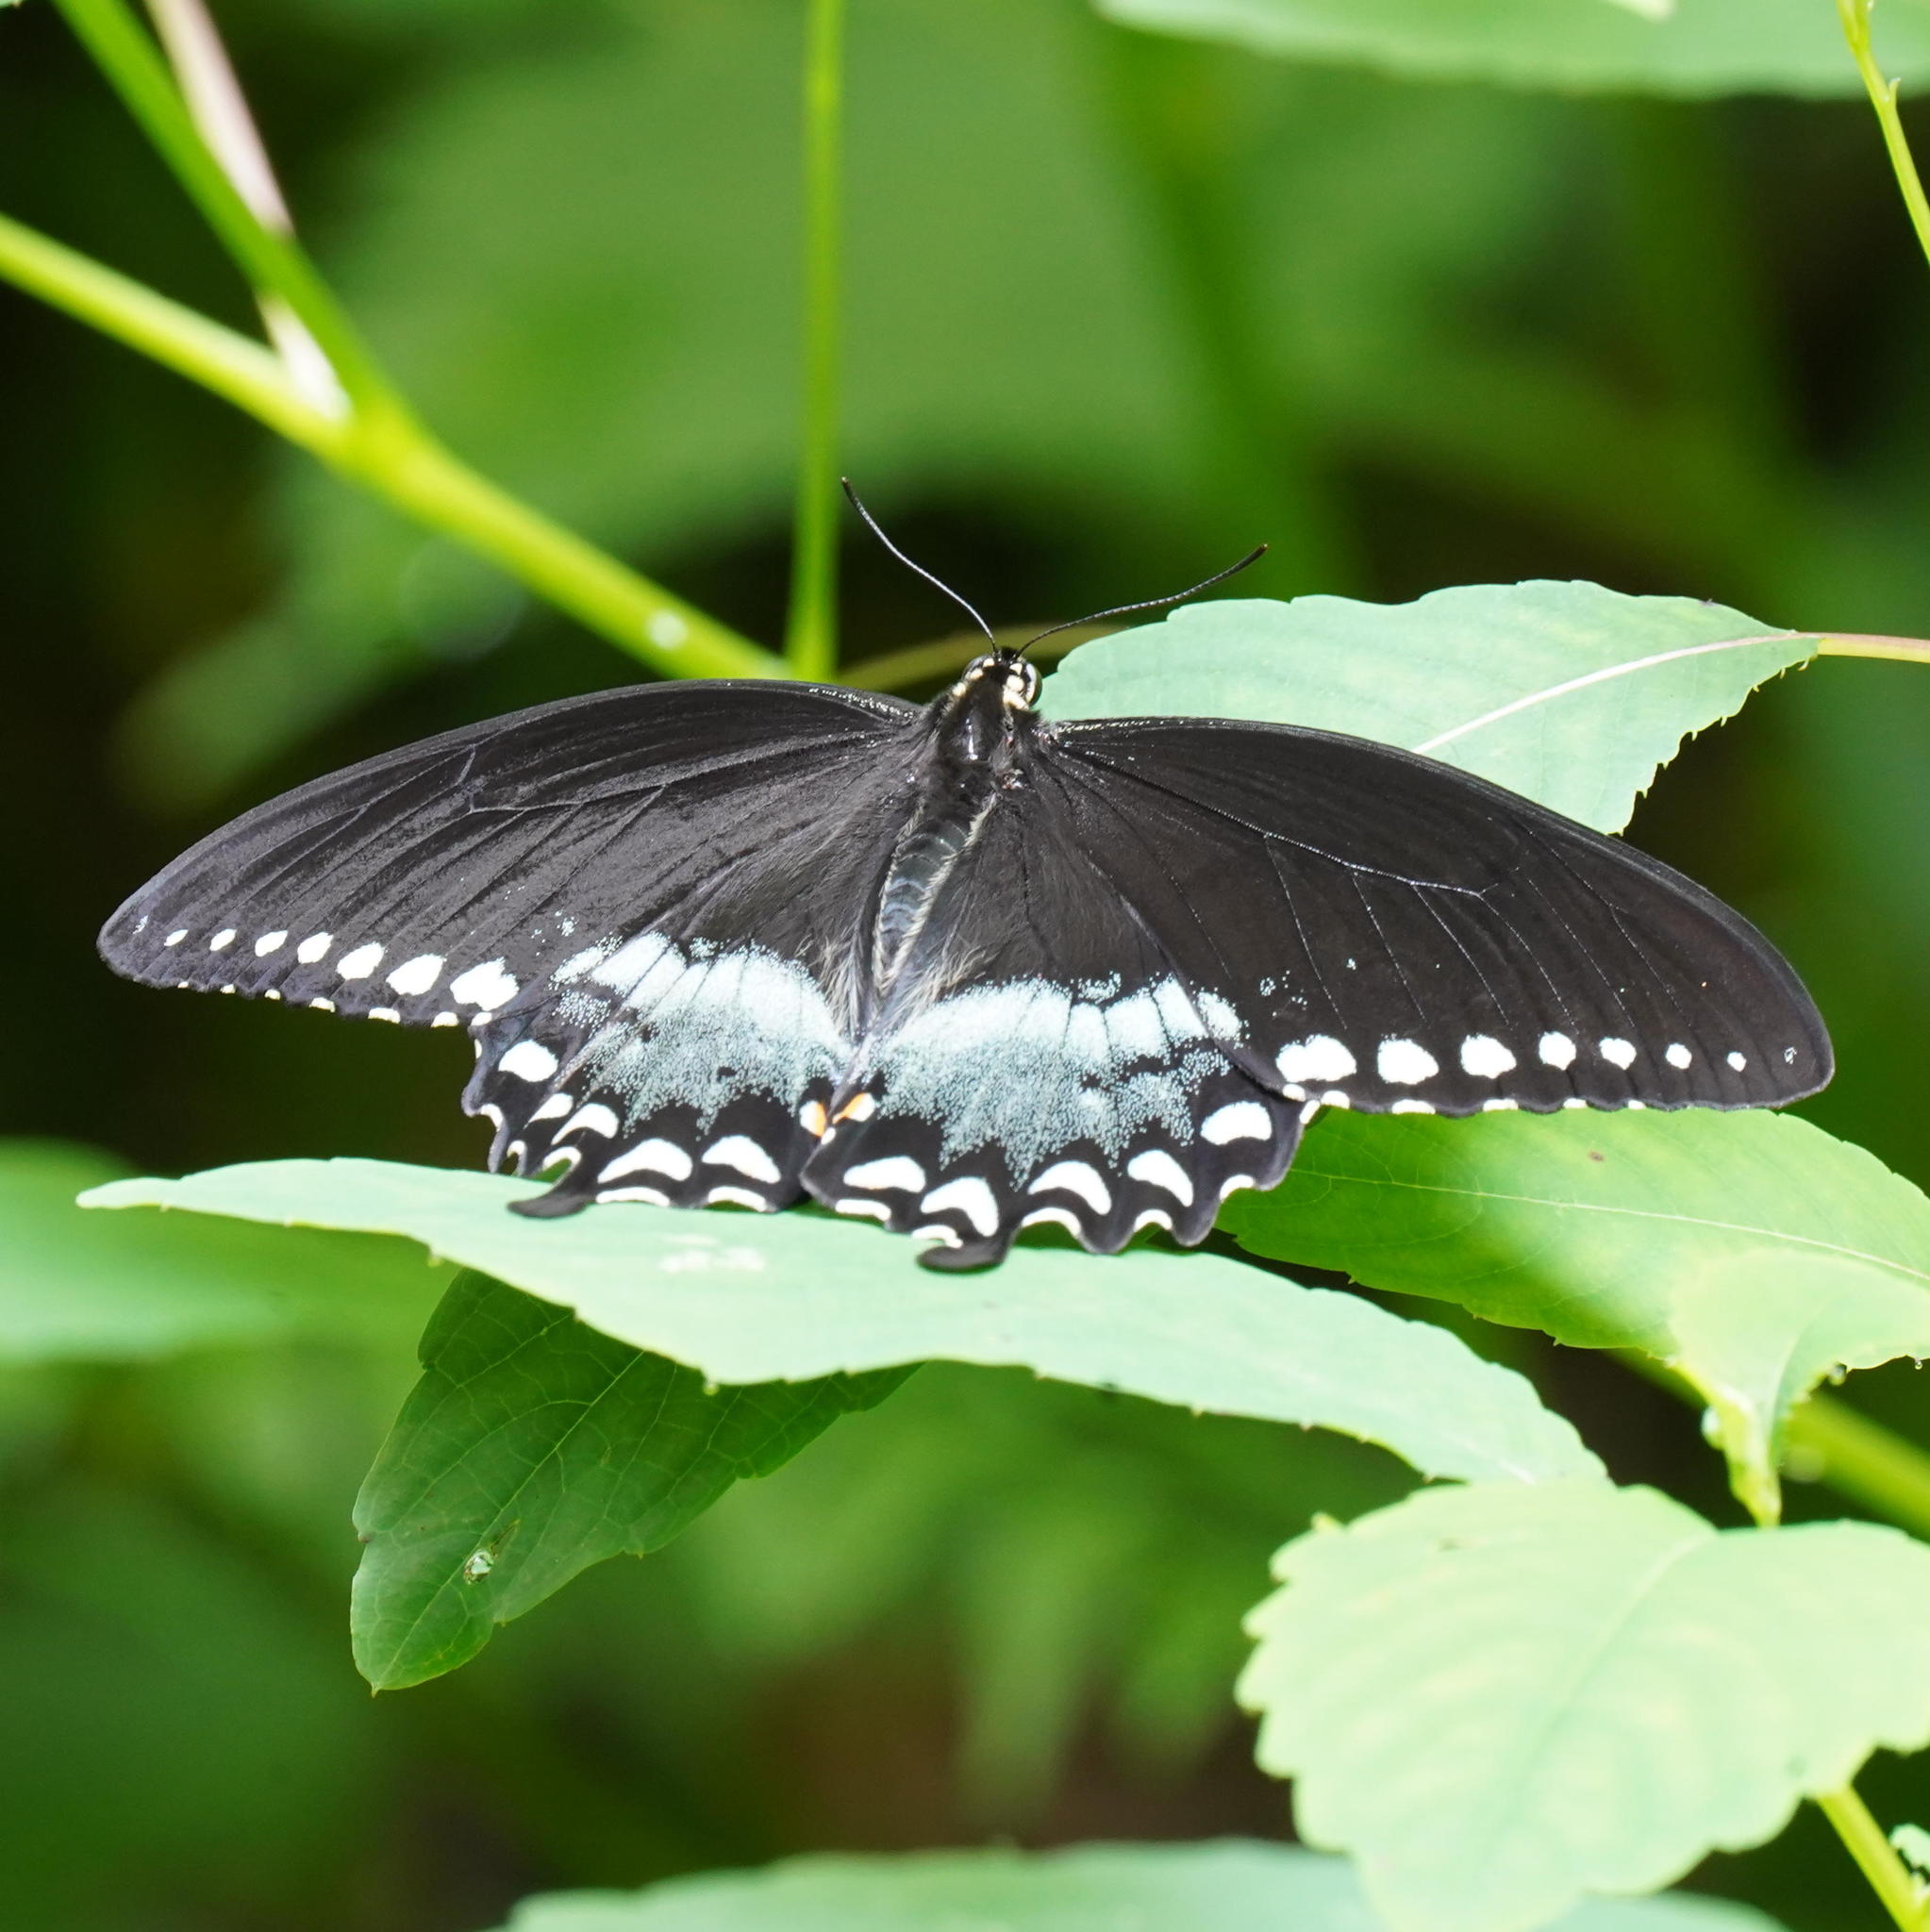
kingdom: Animalia
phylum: Arthropoda
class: Insecta
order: Lepidoptera
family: Papilionidae
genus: Papilio
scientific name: Papilio troilus
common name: Spicebush swallowtail
